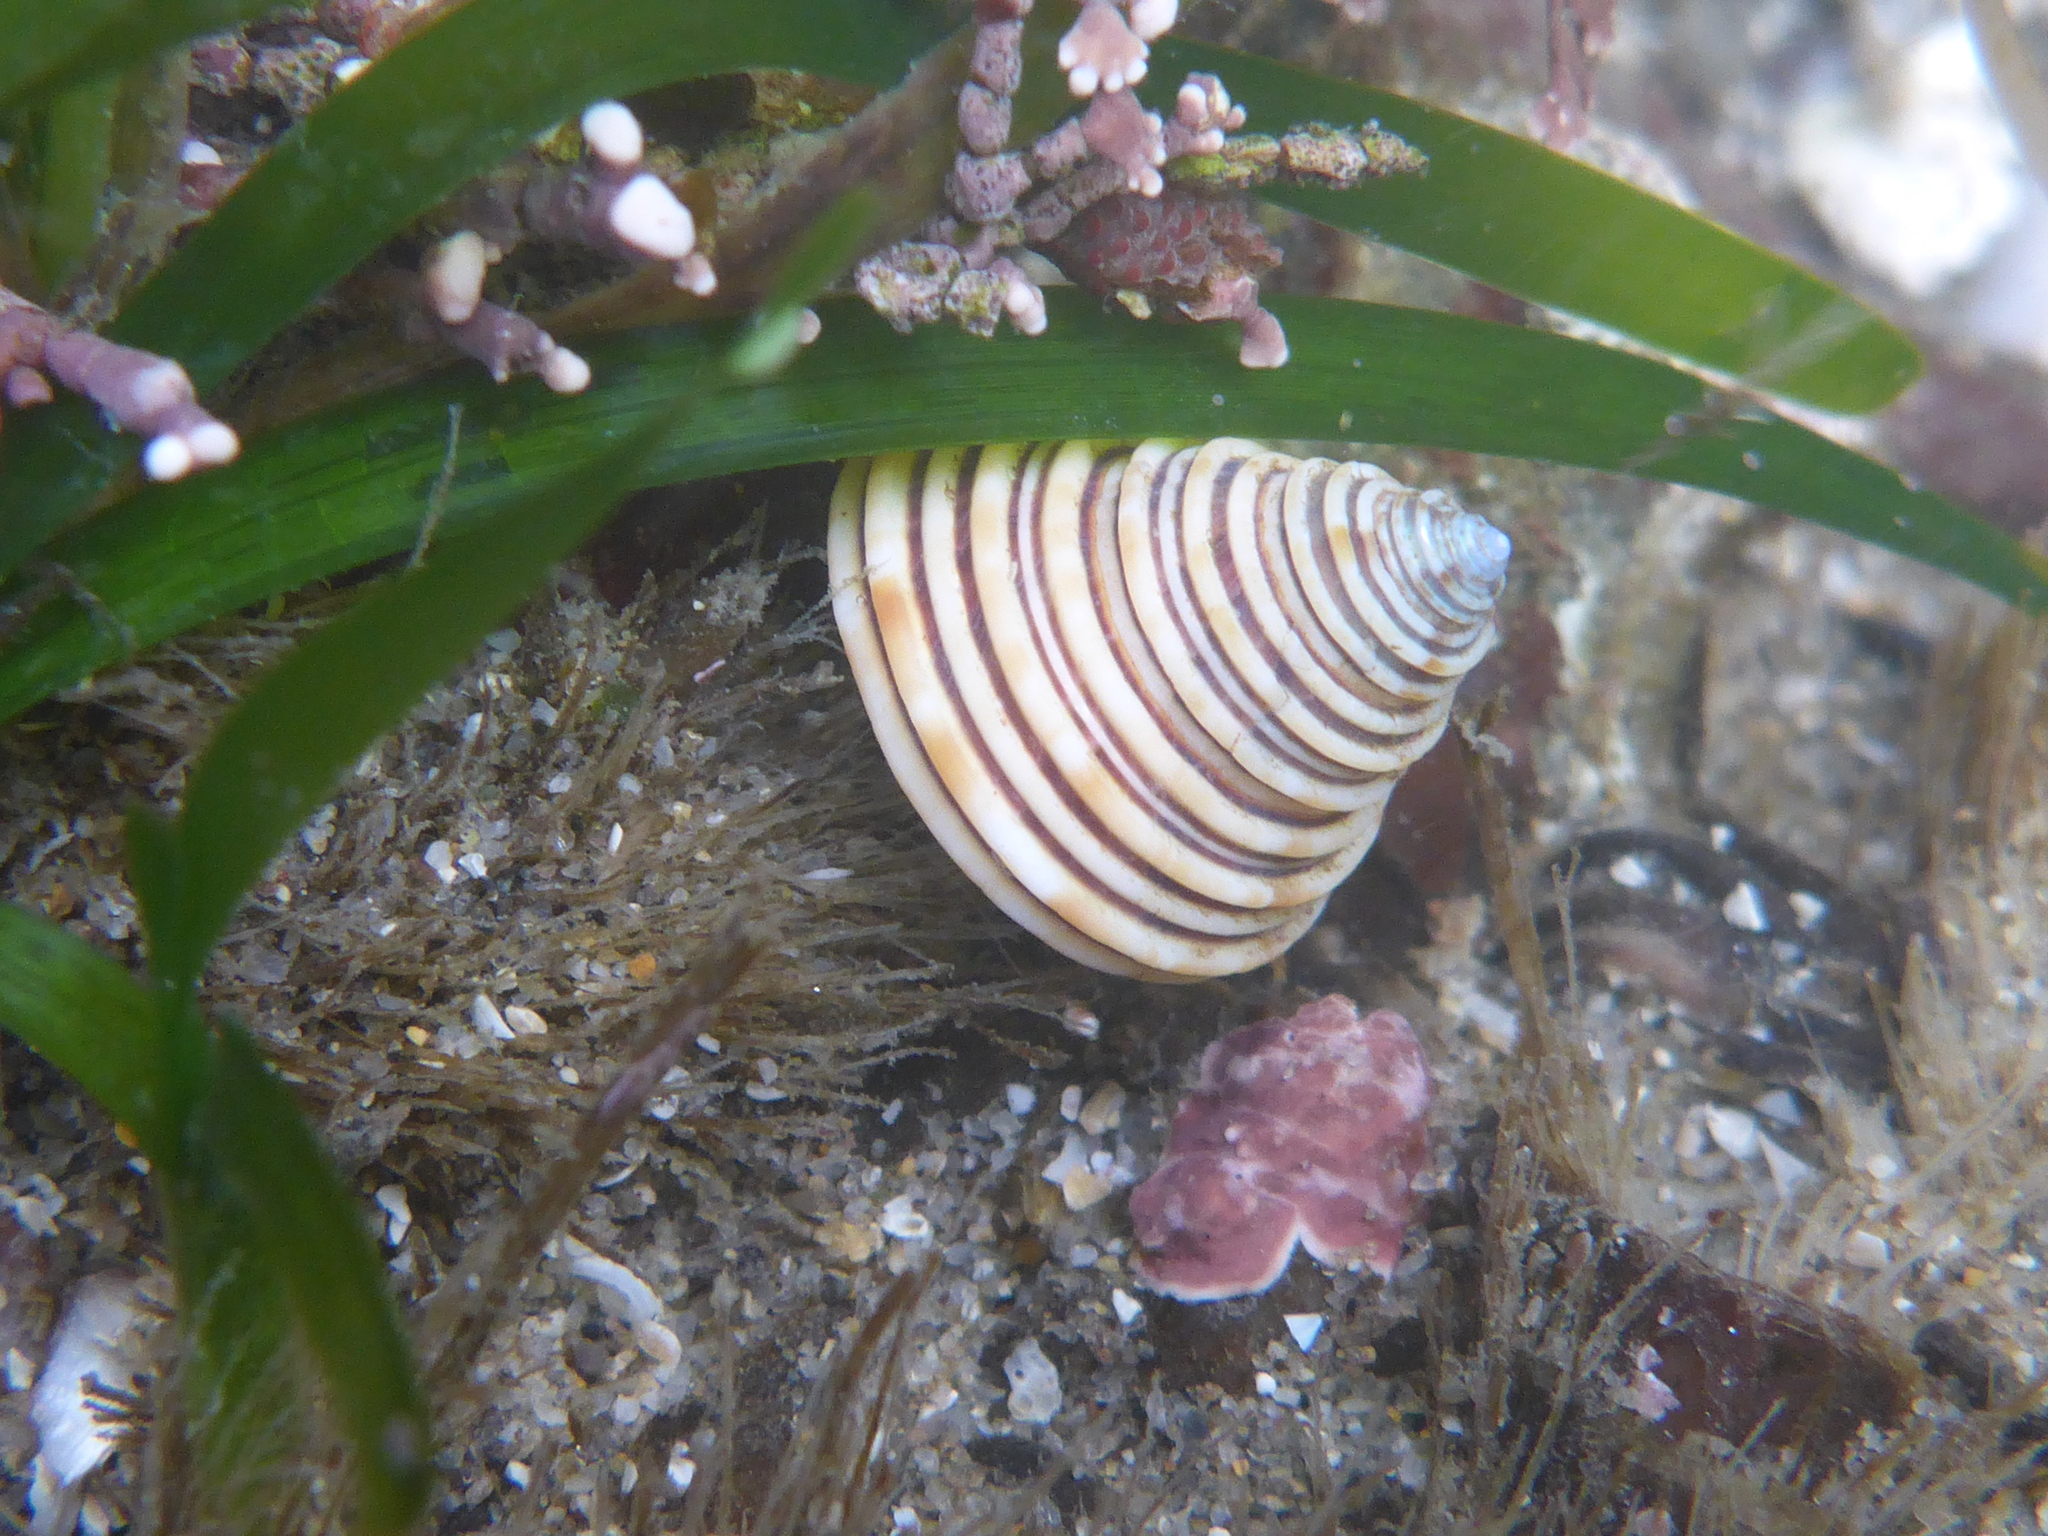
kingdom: Animalia
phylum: Mollusca
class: Gastropoda
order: Trochida
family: Calliostomatidae
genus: Calliostoma
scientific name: Calliostoma canaliculatum
